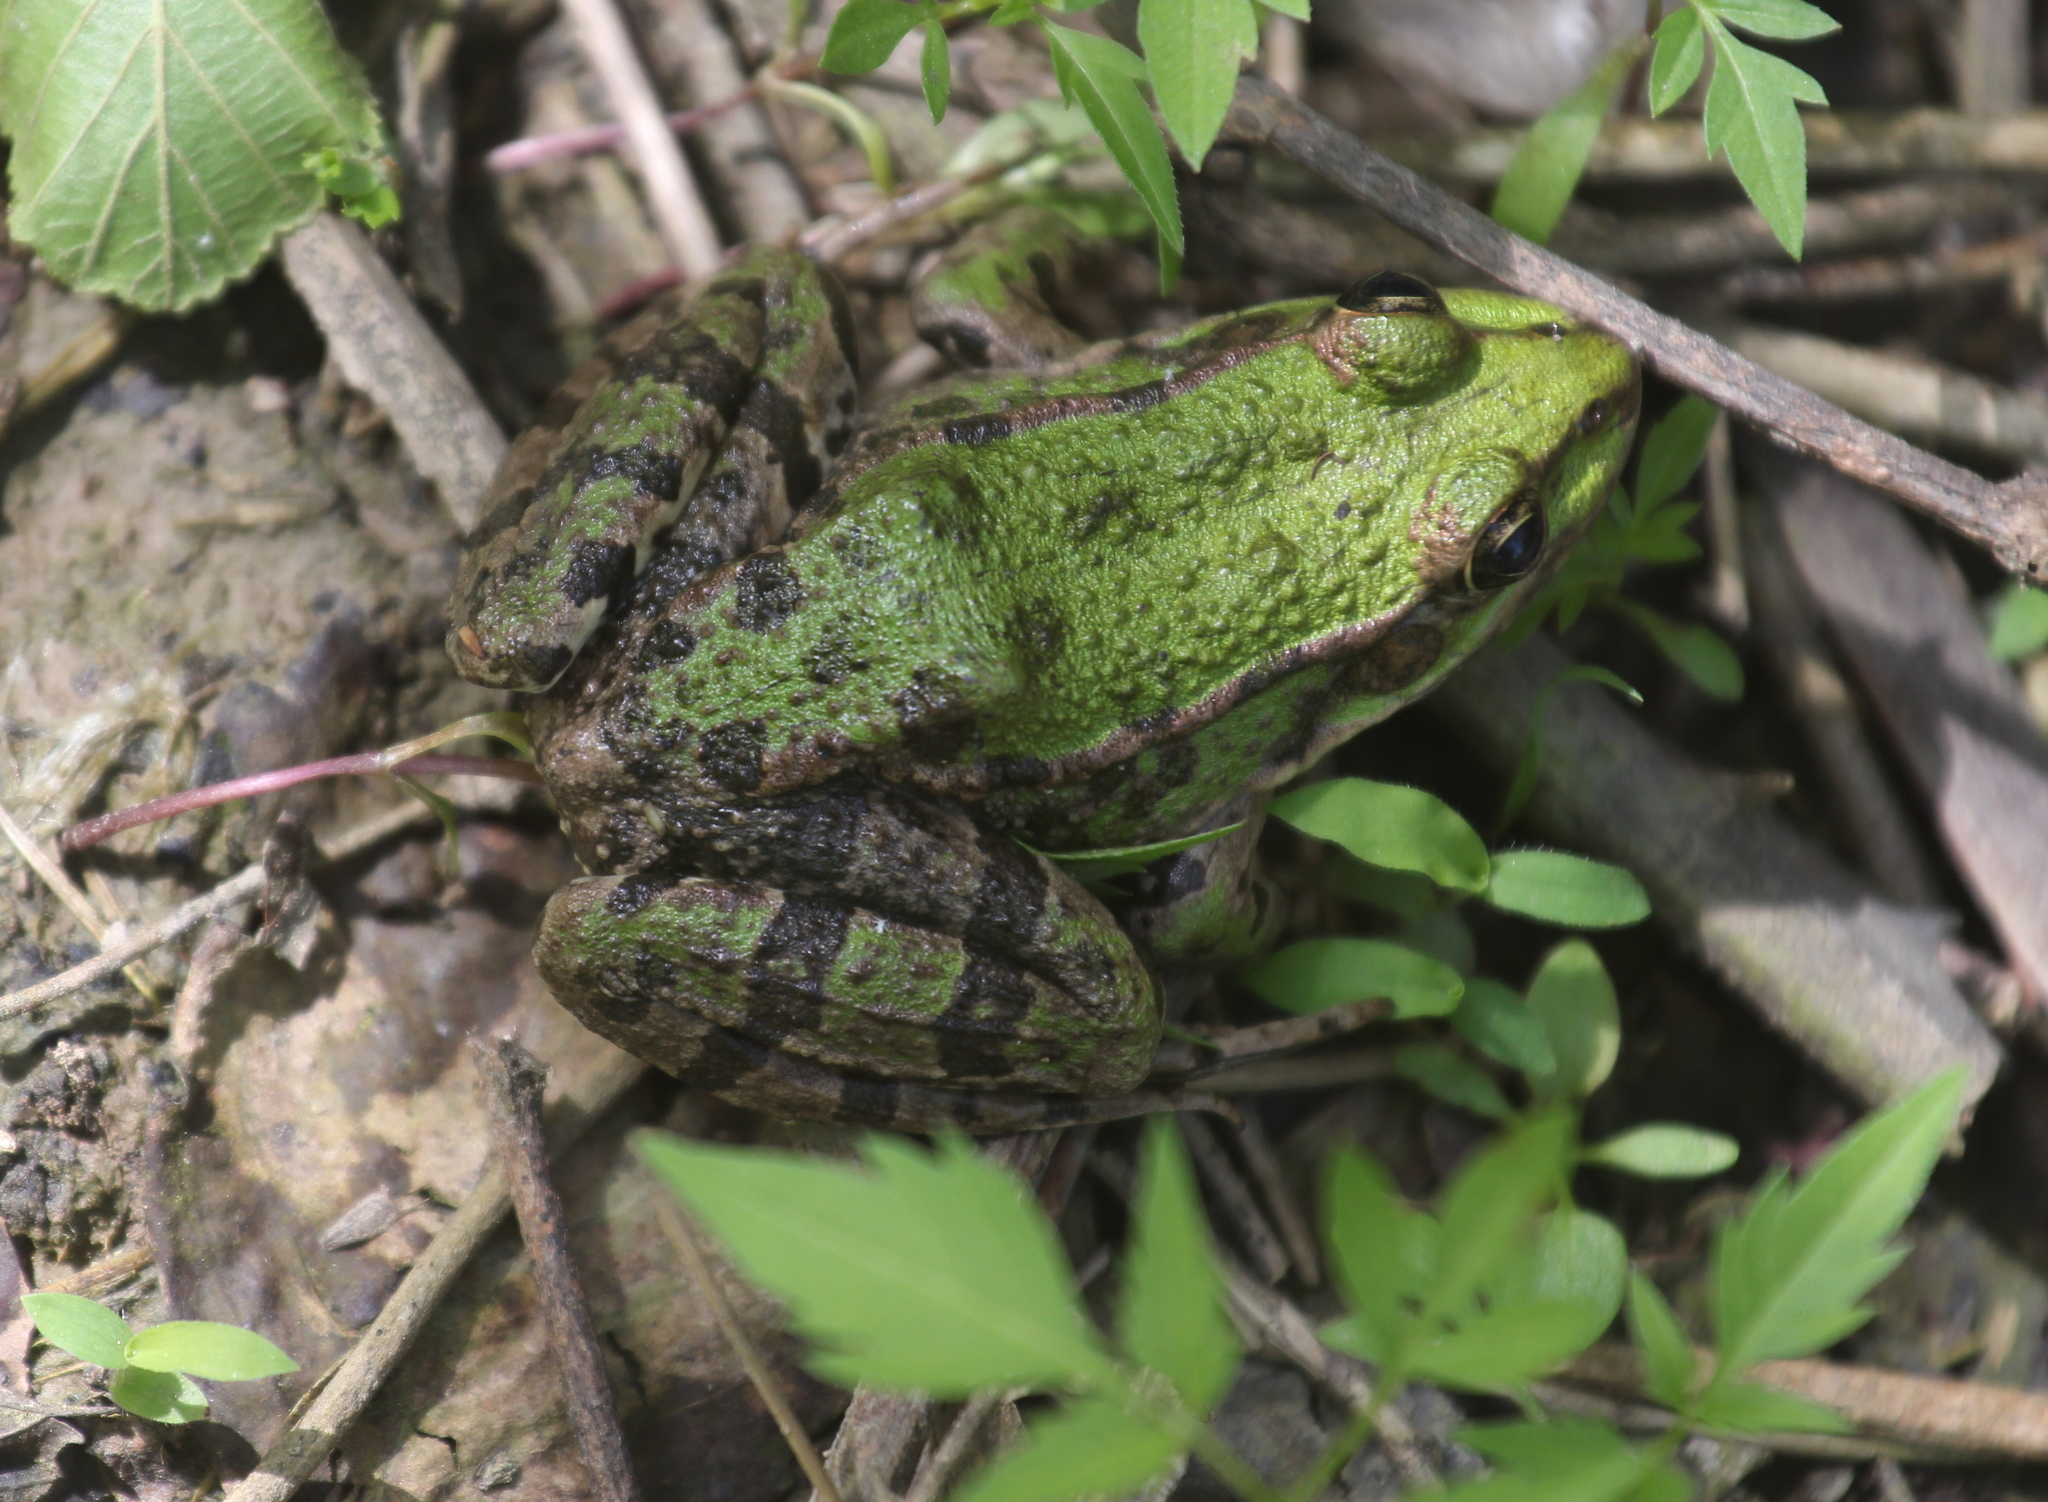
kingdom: Animalia
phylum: Chordata
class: Amphibia
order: Anura
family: Ranidae
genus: Pelophylax
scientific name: Pelophylax ridibundus
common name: Marsh frog
